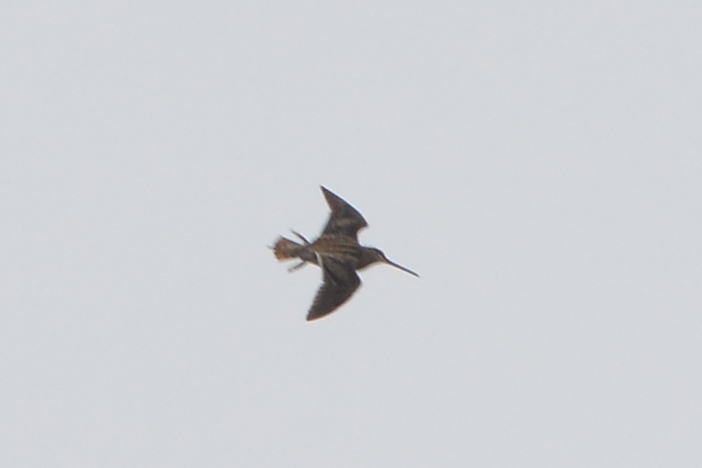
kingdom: Animalia
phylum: Chordata
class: Aves
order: Charadriiformes
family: Scolopacidae
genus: Gallinago
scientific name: Gallinago gallinago
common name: Common snipe
